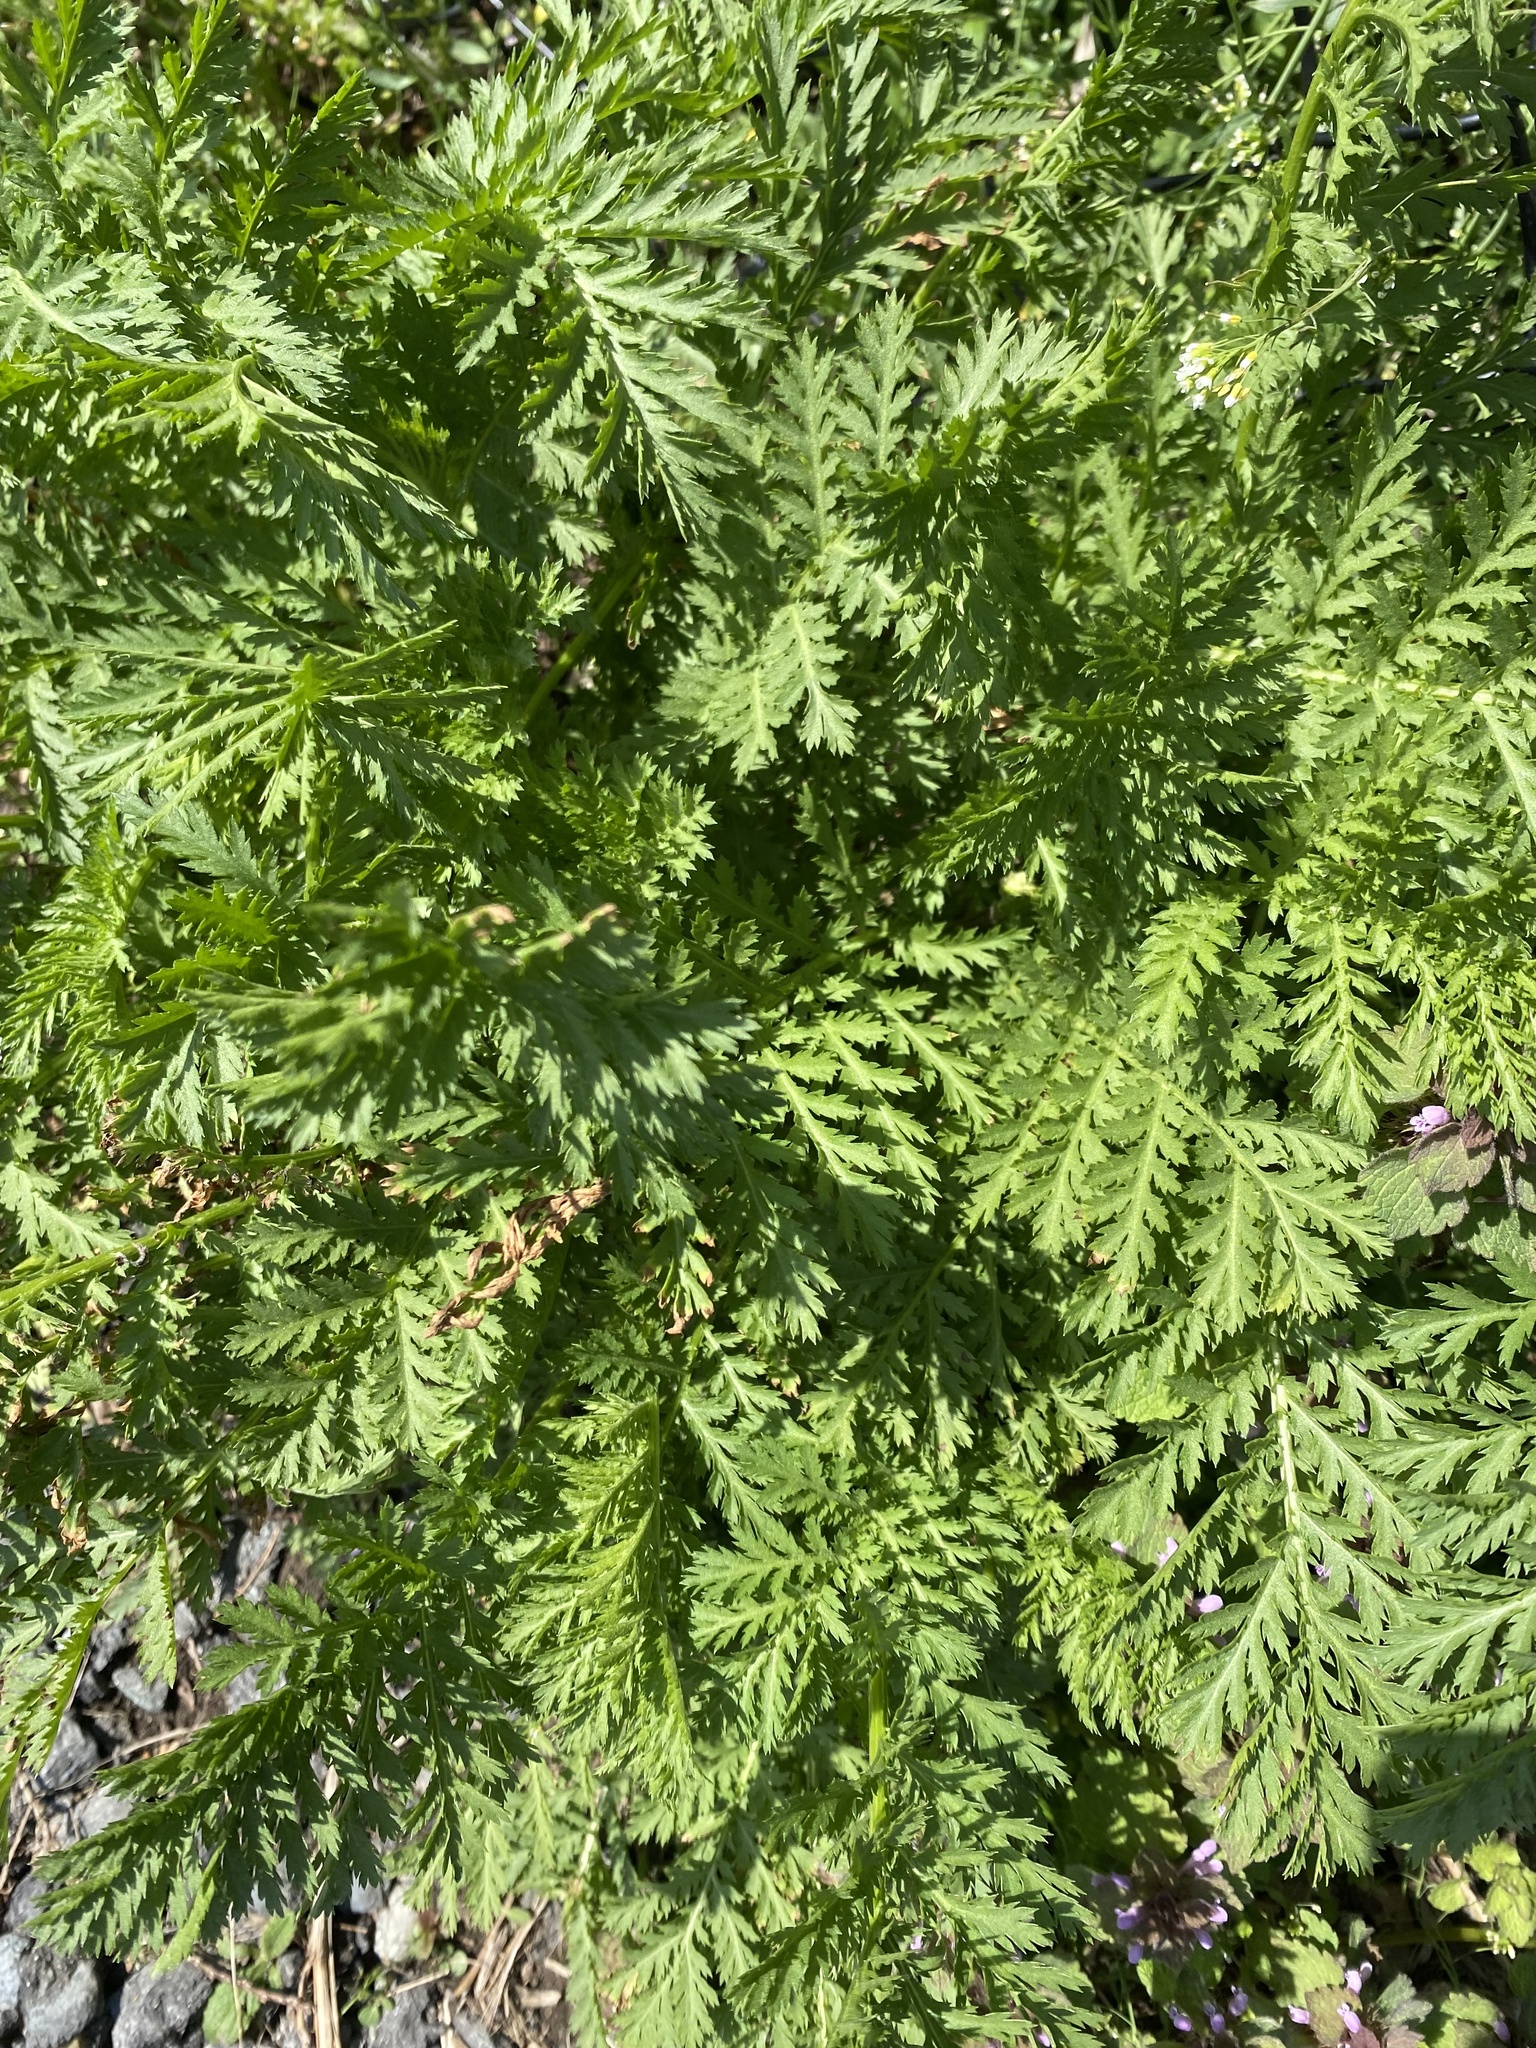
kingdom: Plantae
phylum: Tracheophyta
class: Magnoliopsida
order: Asterales
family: Asteraceae
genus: Tanacetum
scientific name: Tanacetum vulgare
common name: Common tansy
